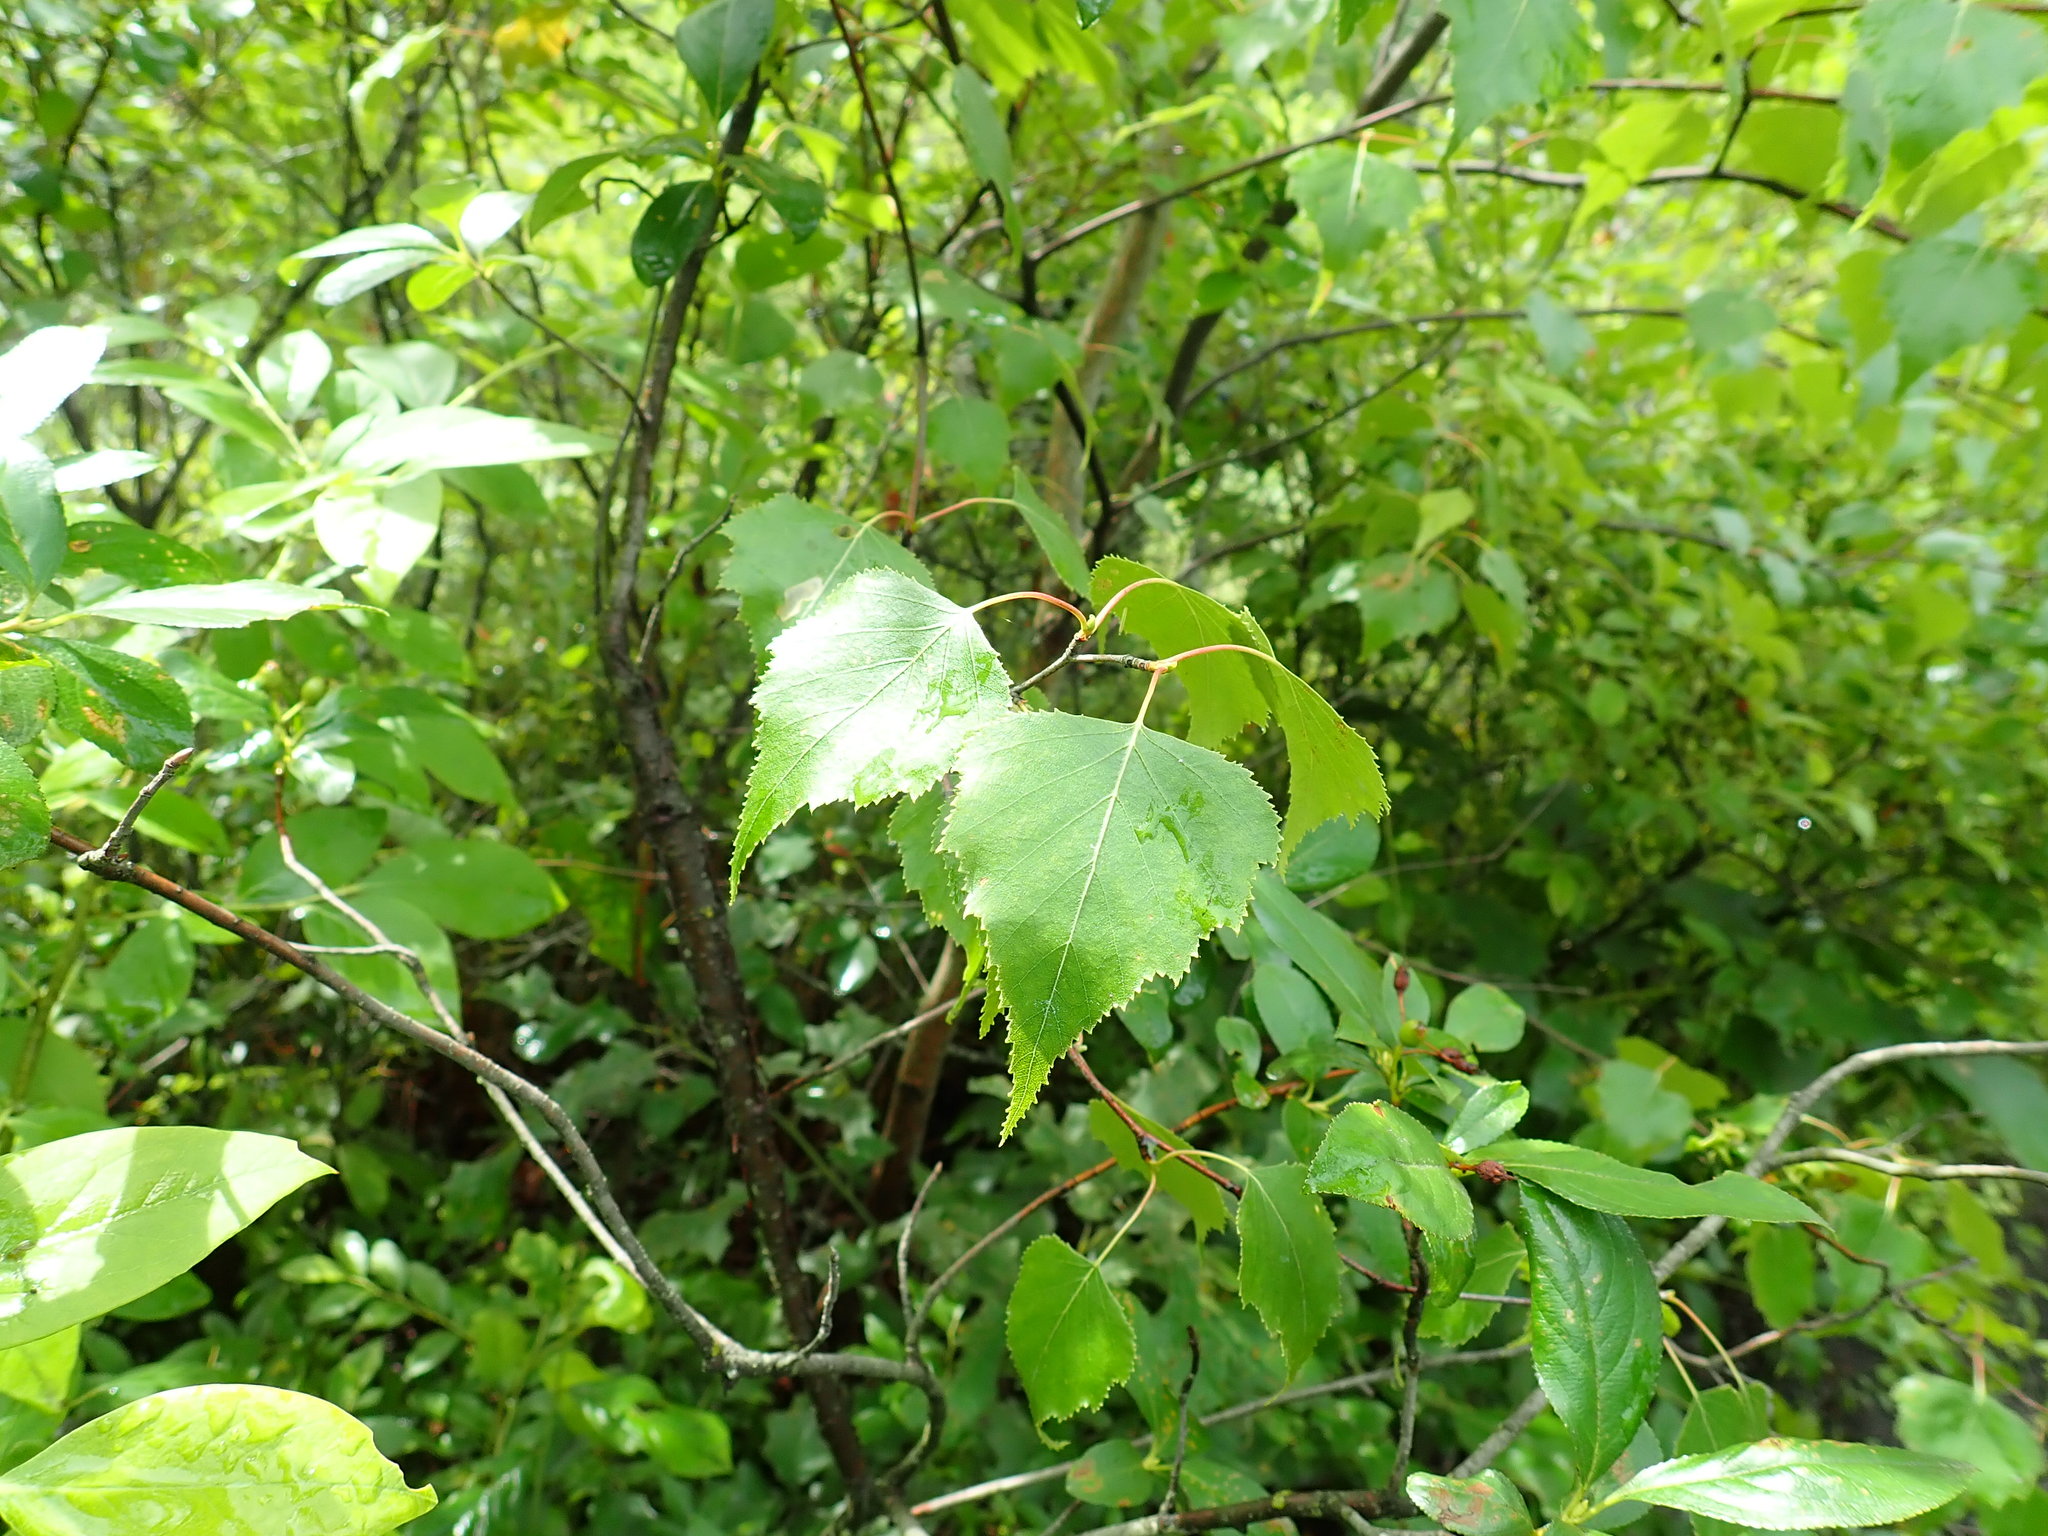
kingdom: Plantae
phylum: Tracheophyta
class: Magnoliopsida
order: Fagales
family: Betulaceae
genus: Betula
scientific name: Betula populifolia
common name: Fire birch
